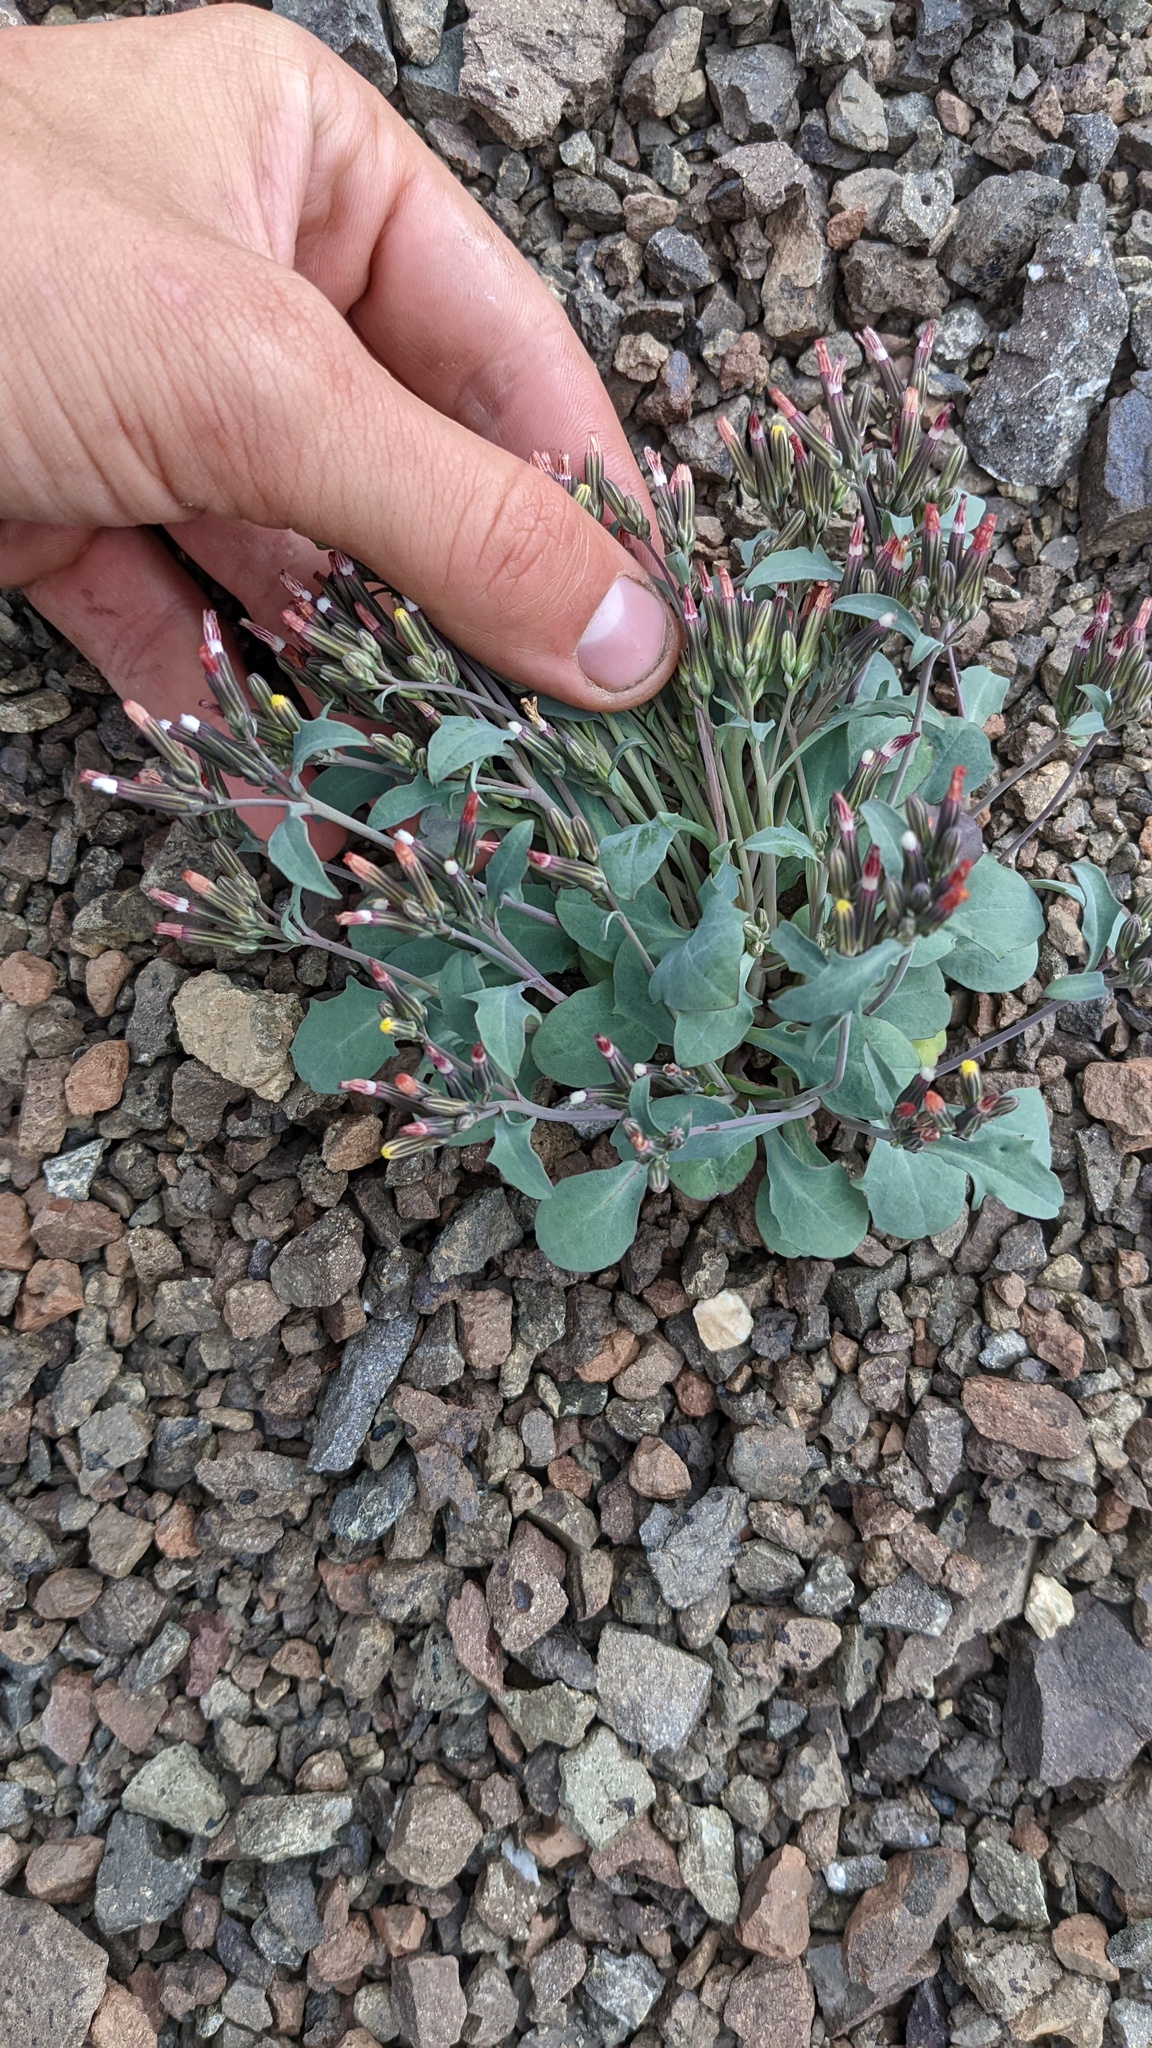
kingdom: Plantae
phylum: Tracheophyta
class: Magnoliopsida
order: Asterales
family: Asteraceae
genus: Askellia
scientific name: Askellia elegans
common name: Elegant hawksbeard
